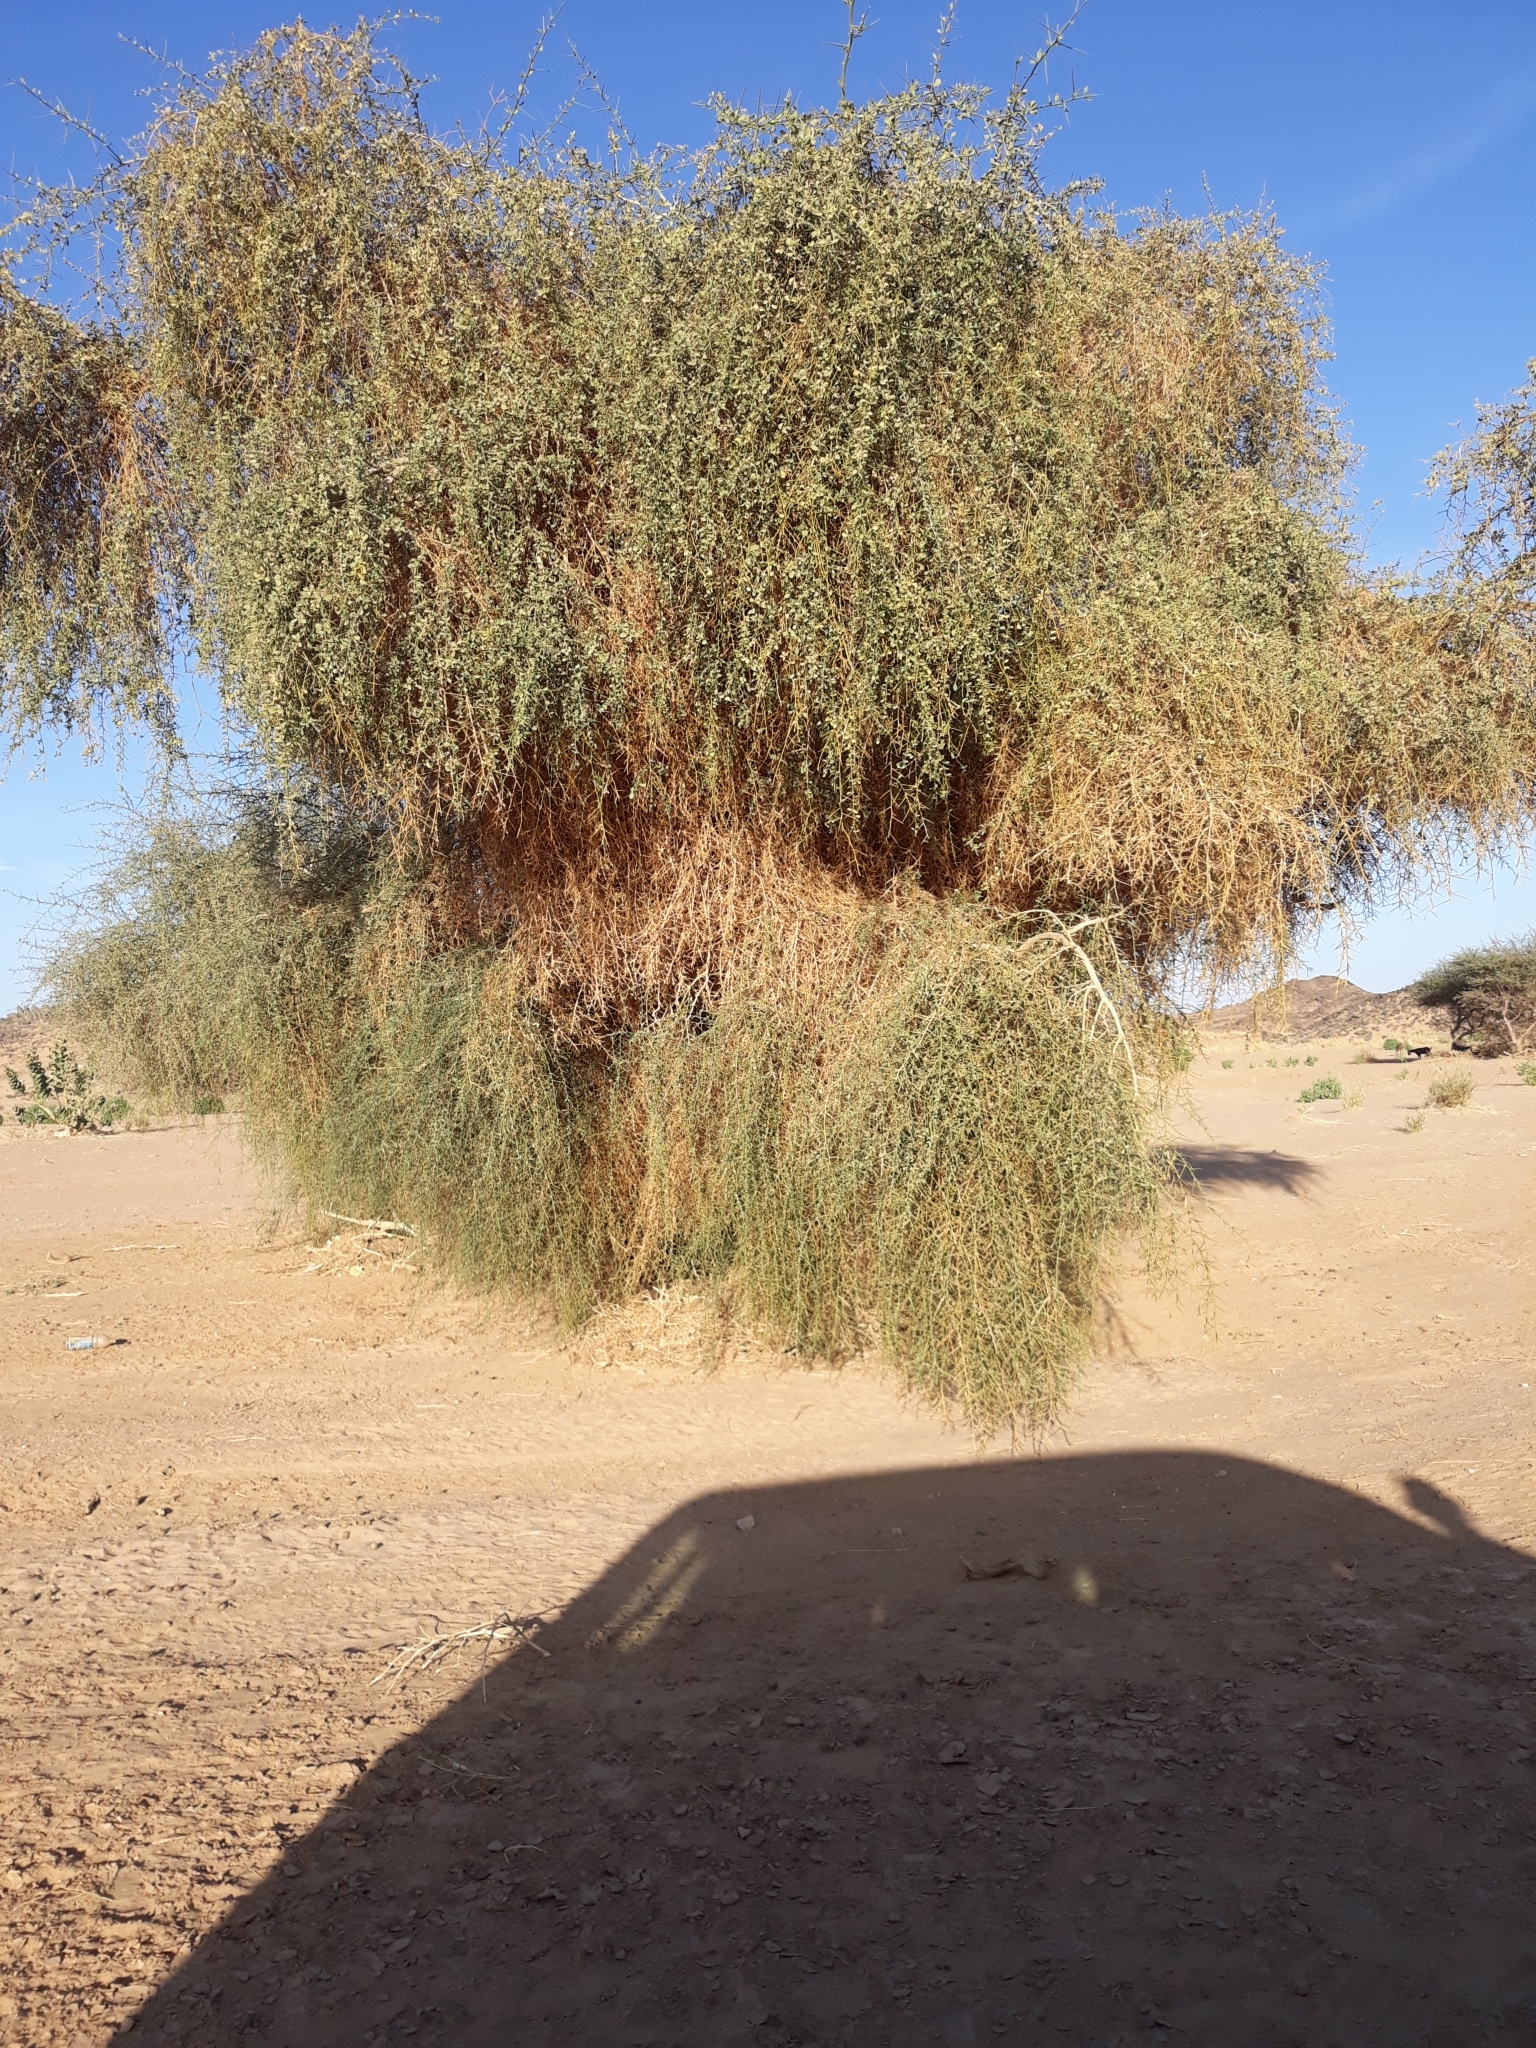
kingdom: Plantae
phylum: Tracheophyta
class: Magnoliopsida
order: Zygophyllales
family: Zygophyllaceae
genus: Balanites
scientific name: Balanites aegyptiaca
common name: Balanites
